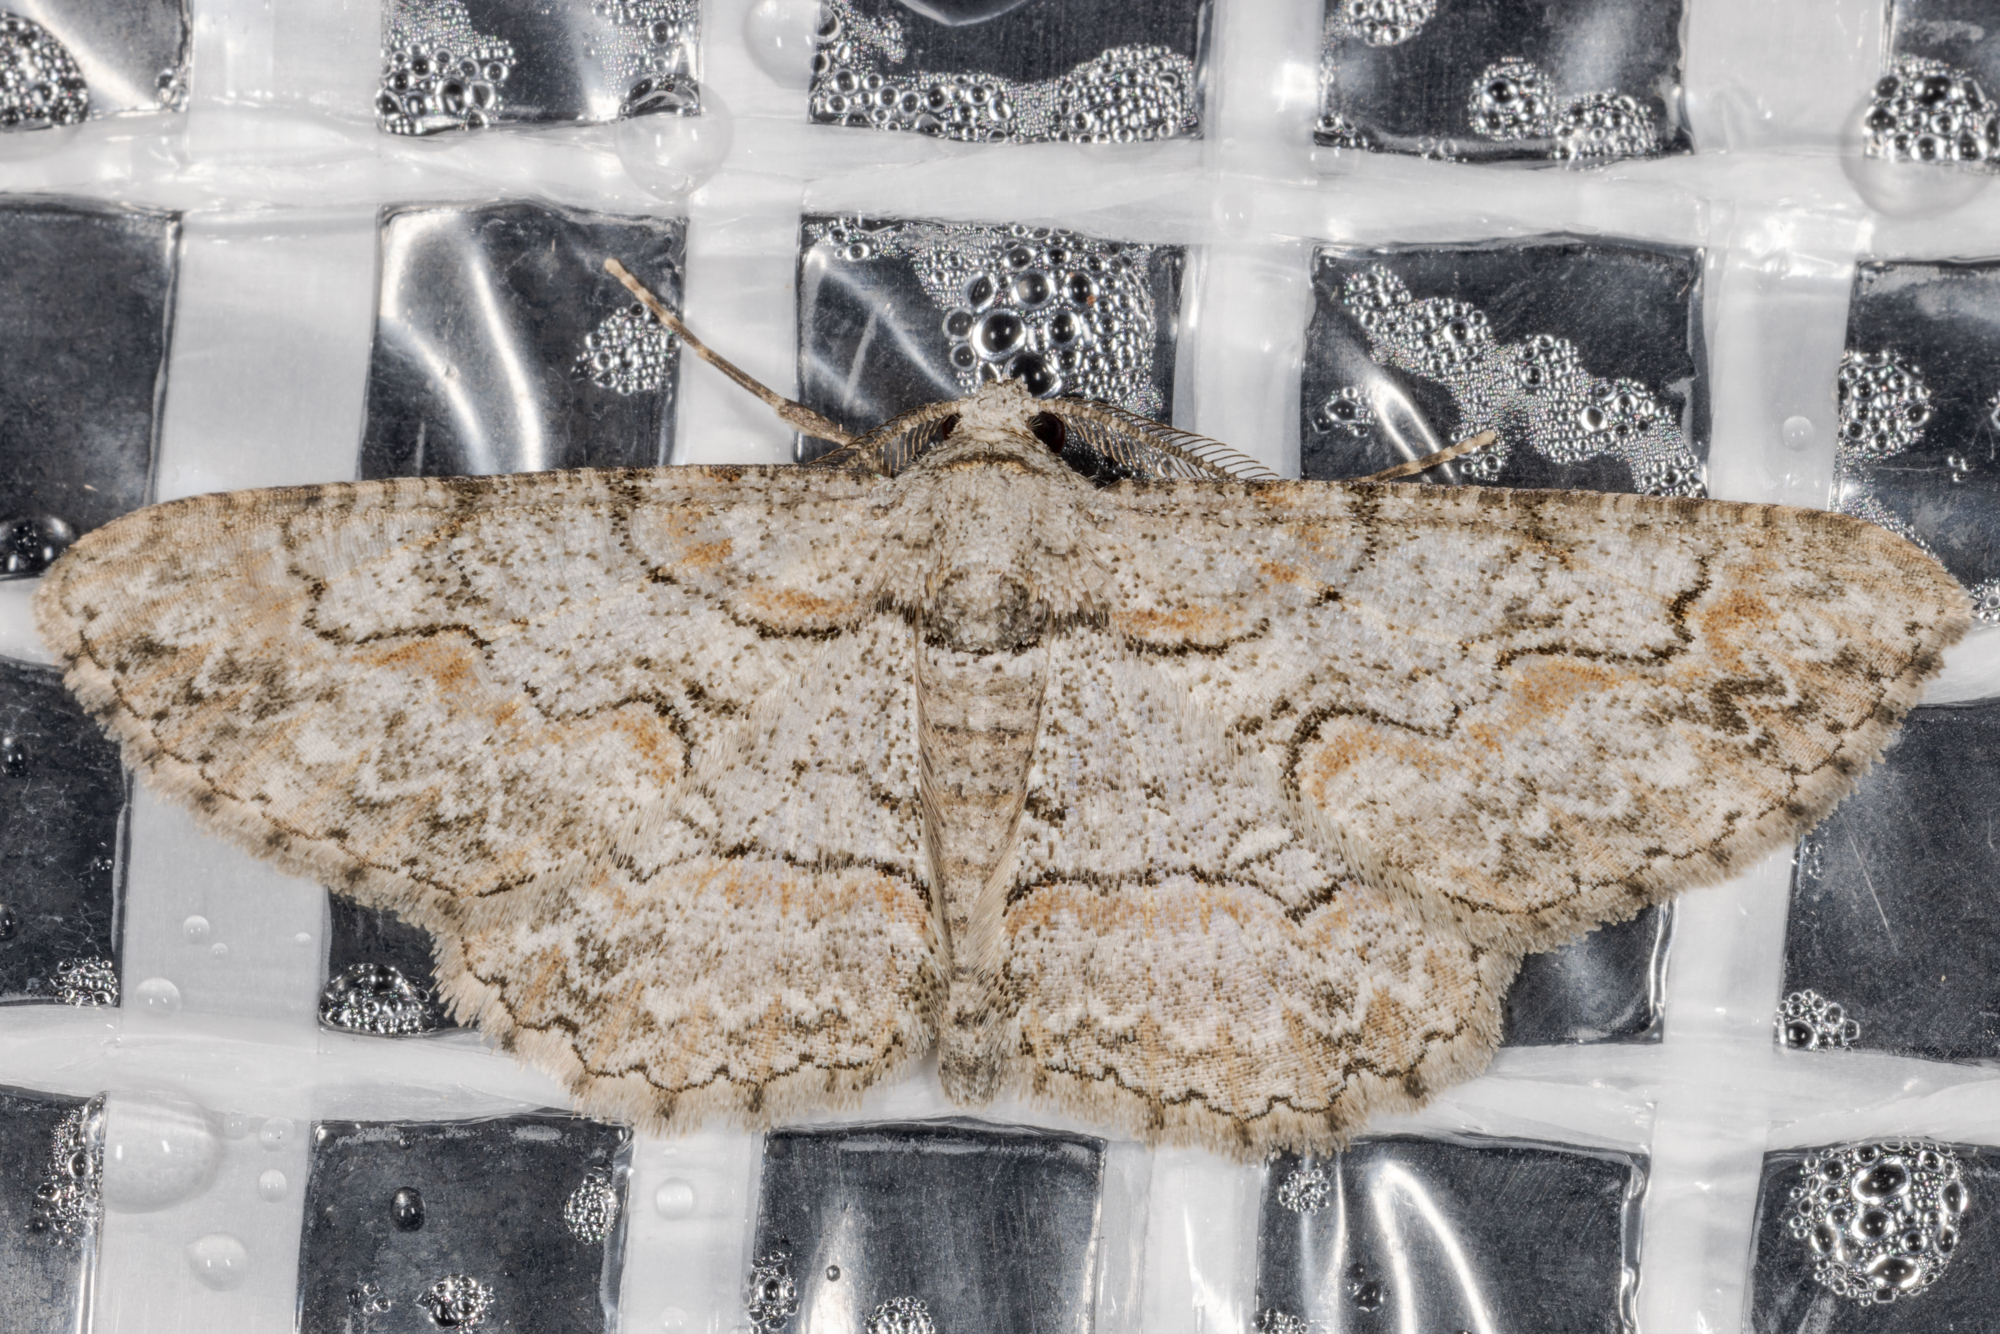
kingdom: Animalia
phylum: Arthropoda
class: Insecta
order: Lepidoptera
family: Geometridae
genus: Iridopsis
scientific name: Iridopsis defectaria
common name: Brown-shaded gray
